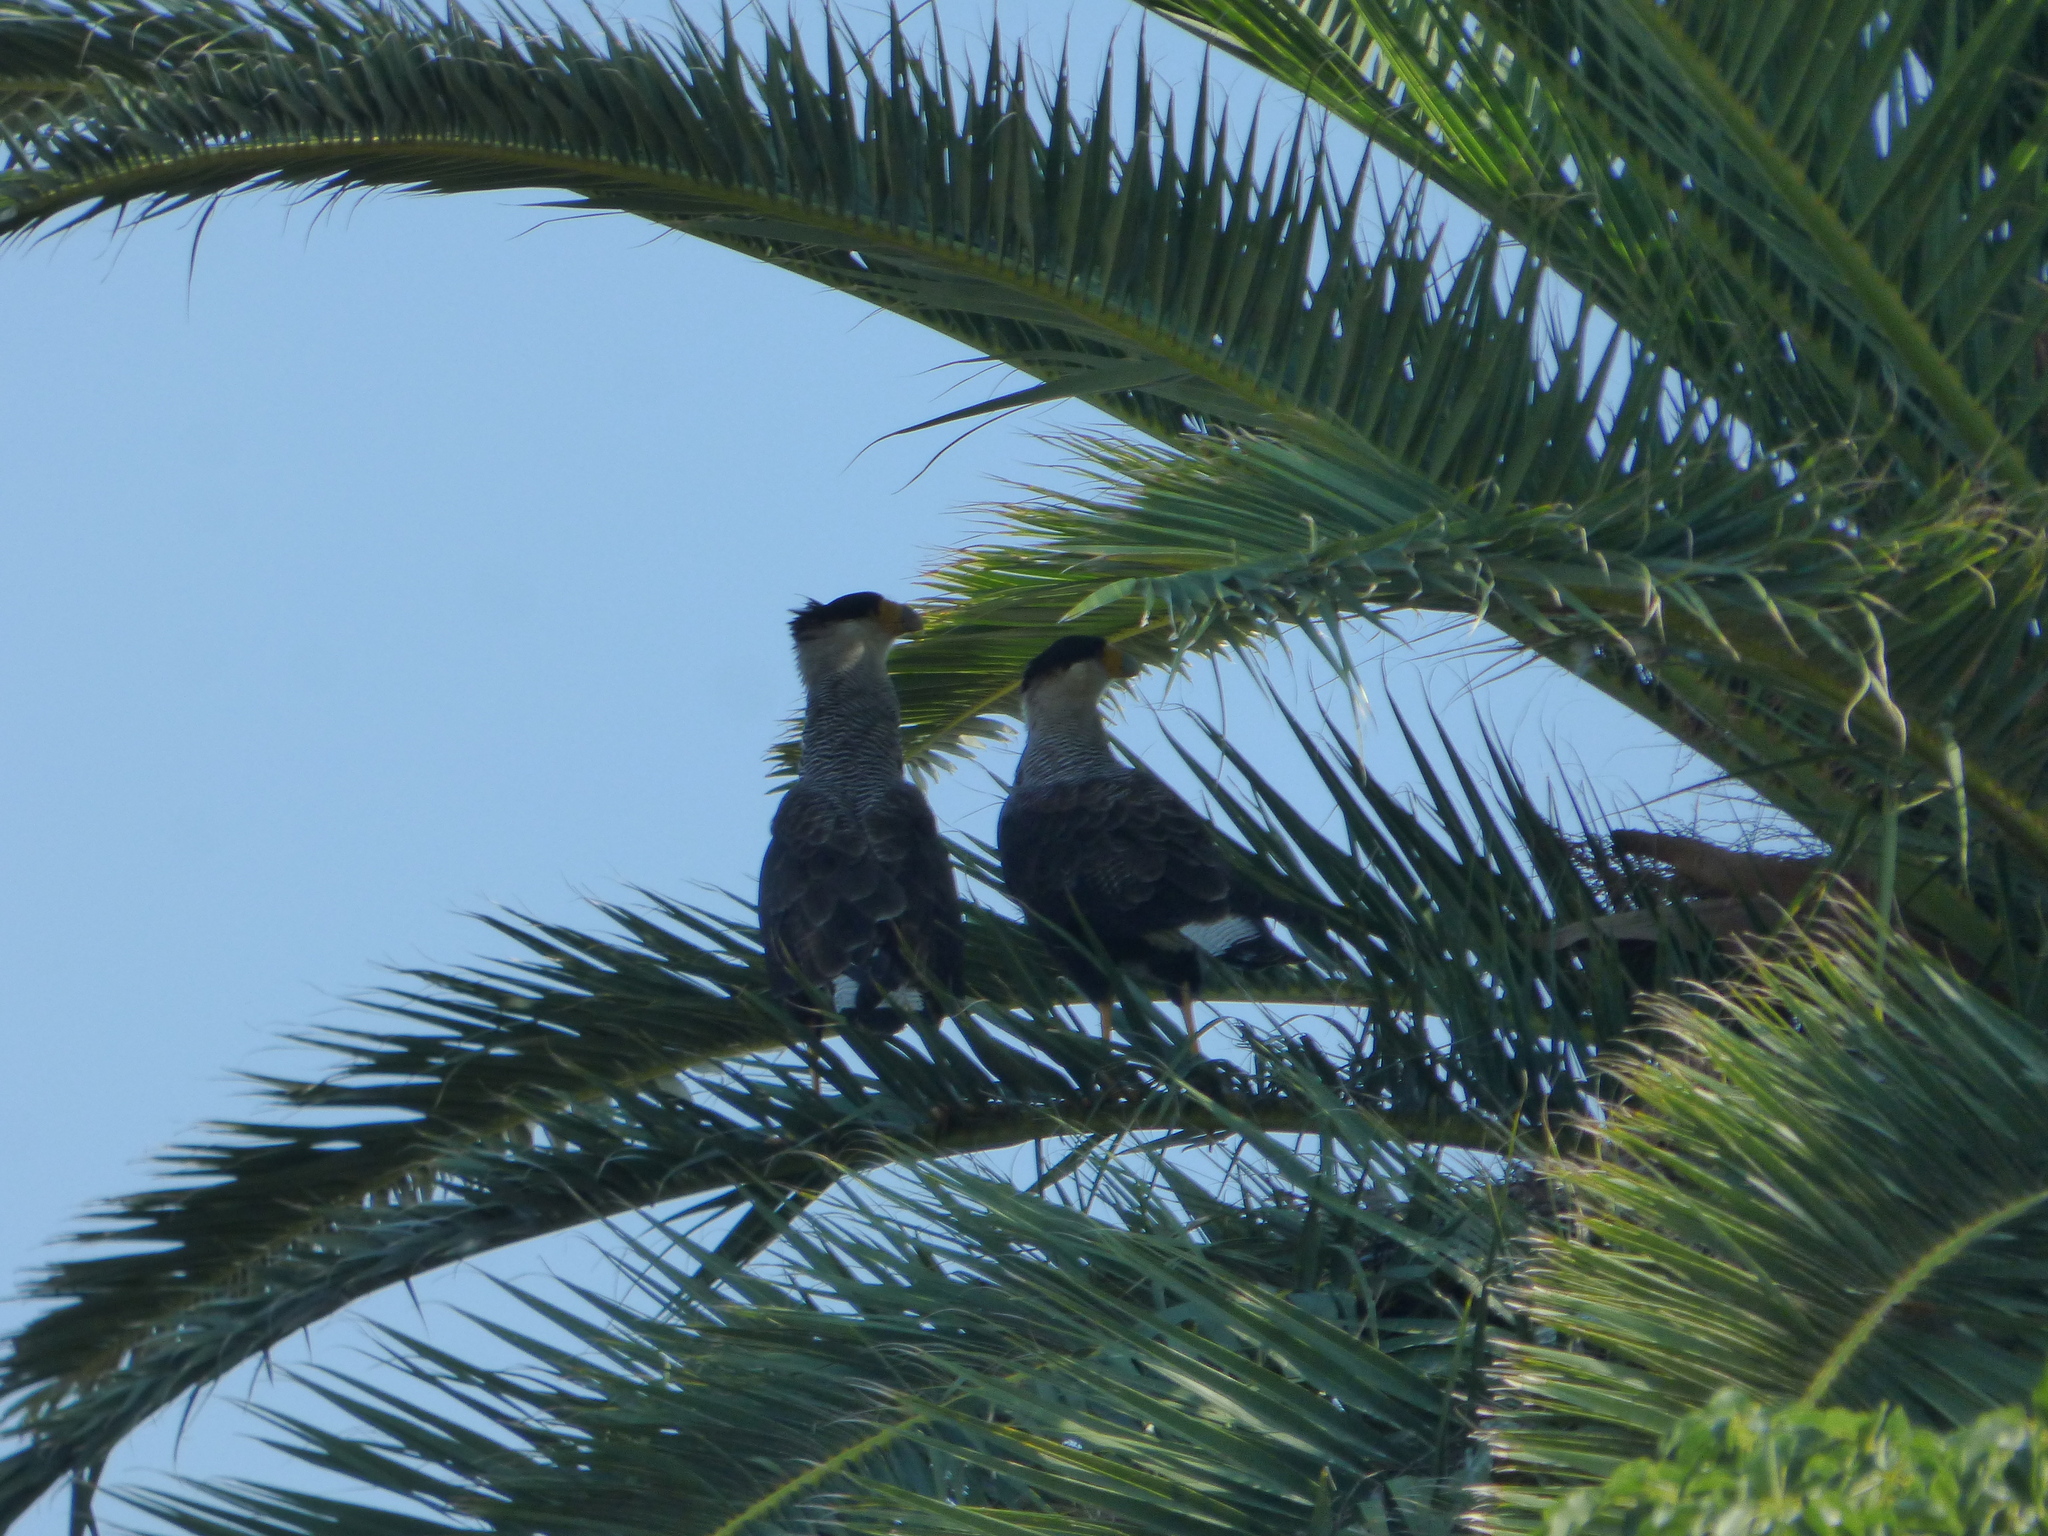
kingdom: Animalia
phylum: Chordata
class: Aves
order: Falconiformes
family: Falconidae
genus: Caracara
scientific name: Caracara plancus
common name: Southern caracara
